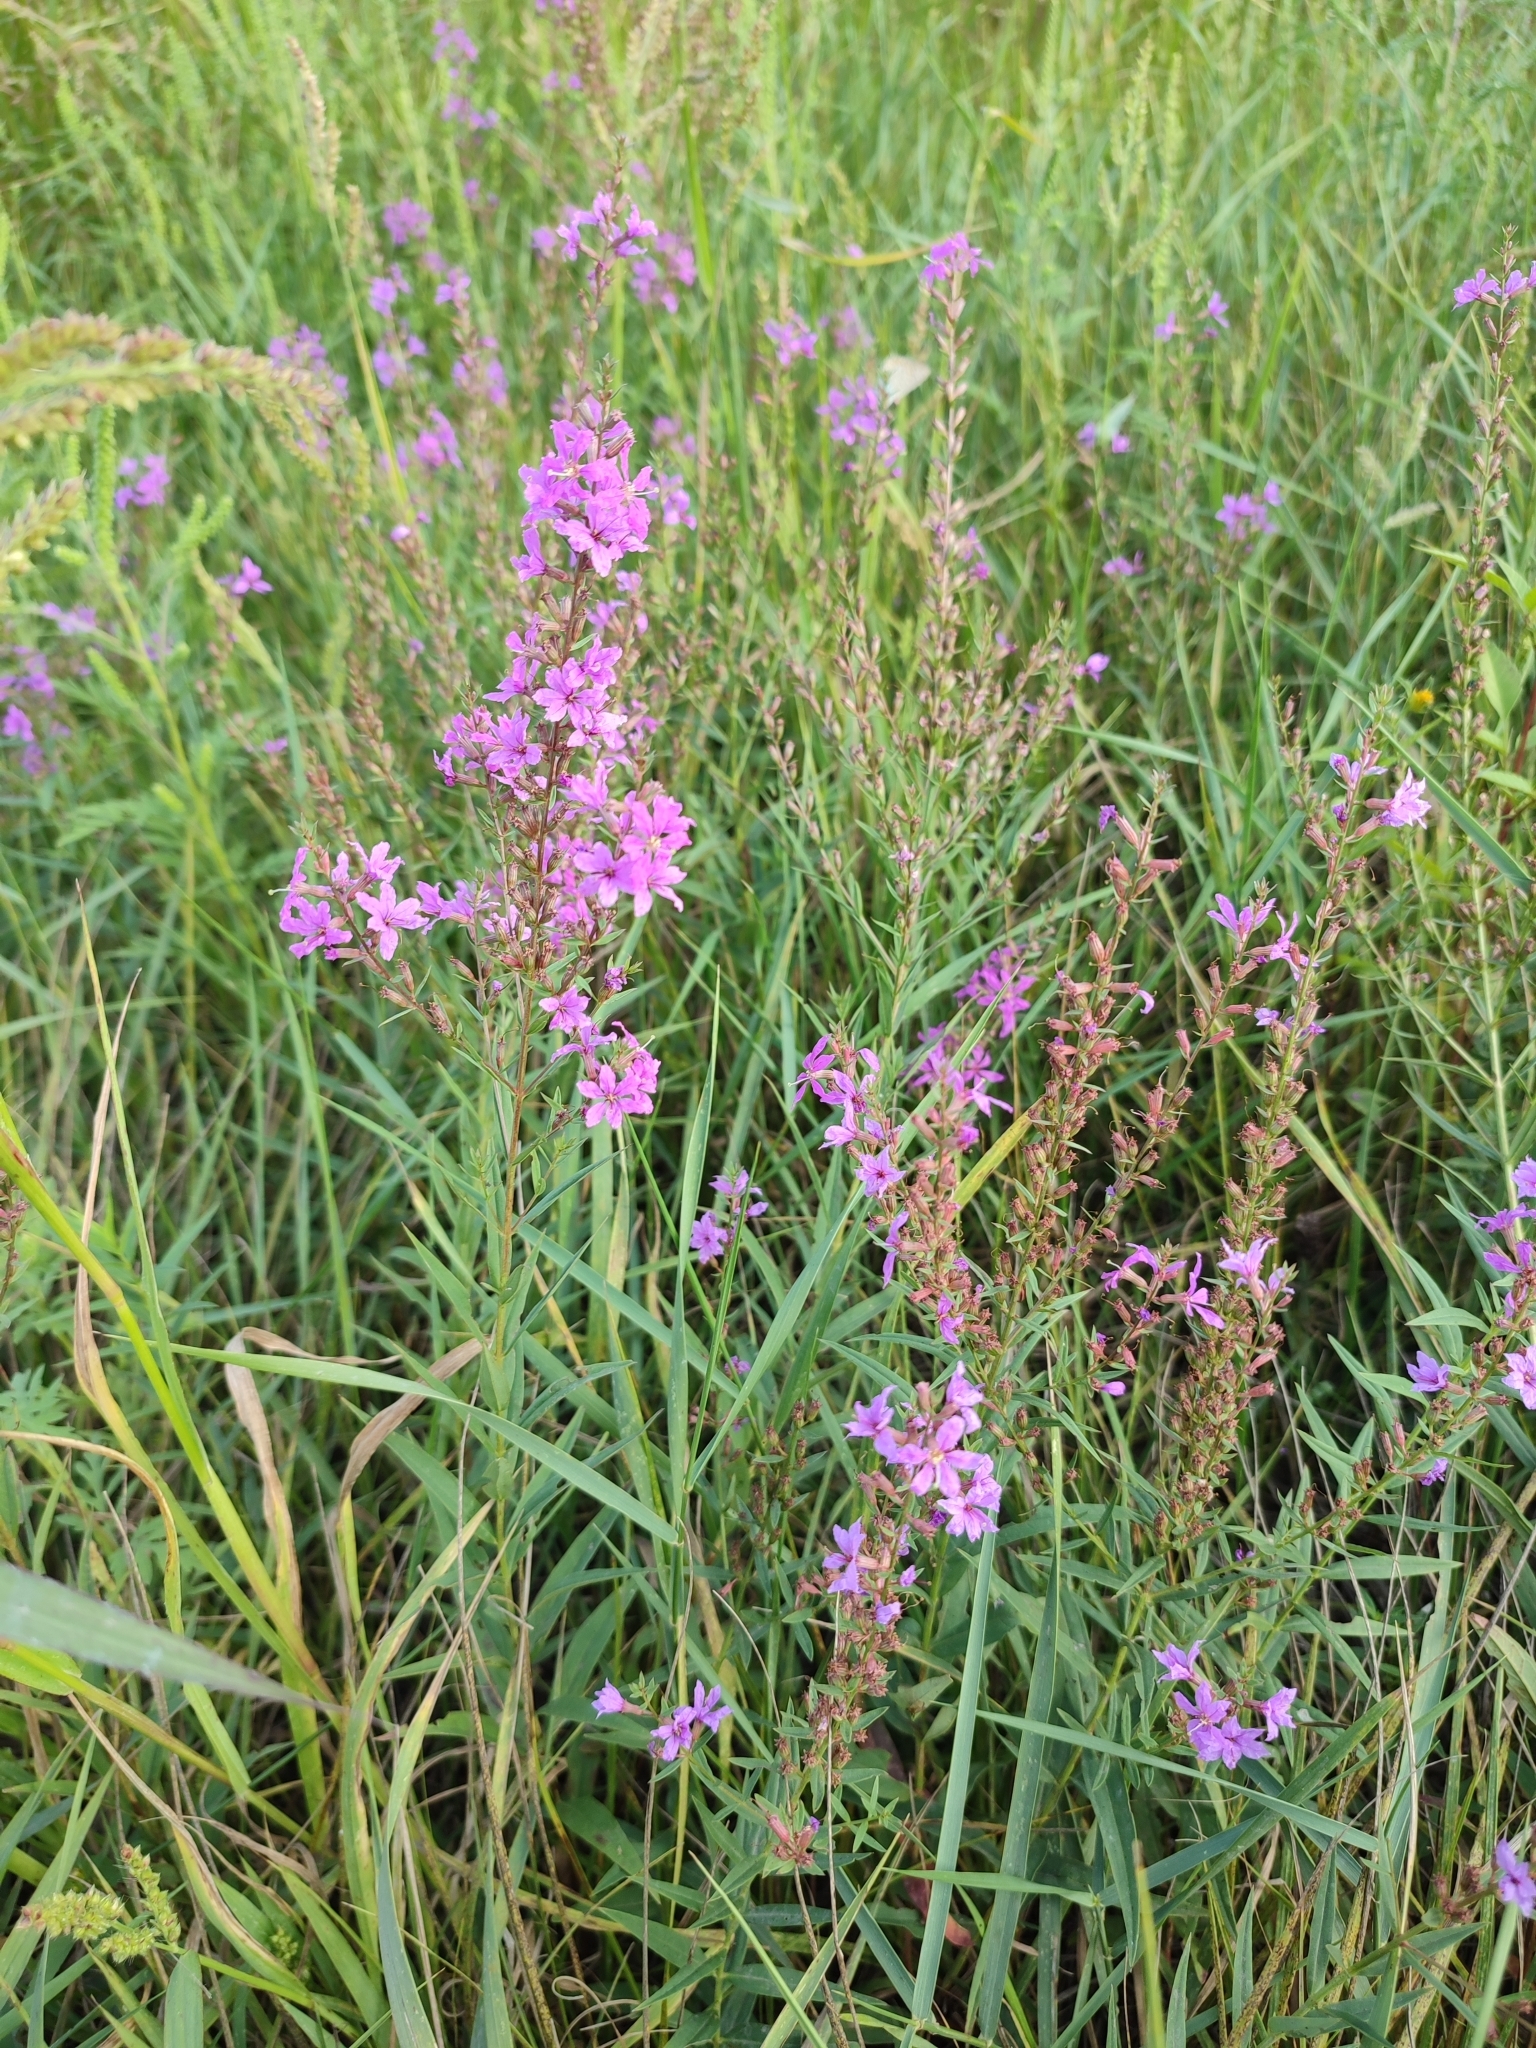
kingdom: Plantae
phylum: Tracheophyta
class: Magnoliopsida
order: Myrtales
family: Lythraceae
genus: Lythrum
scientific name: Lythrum virgatum
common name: European wand loosestrife
